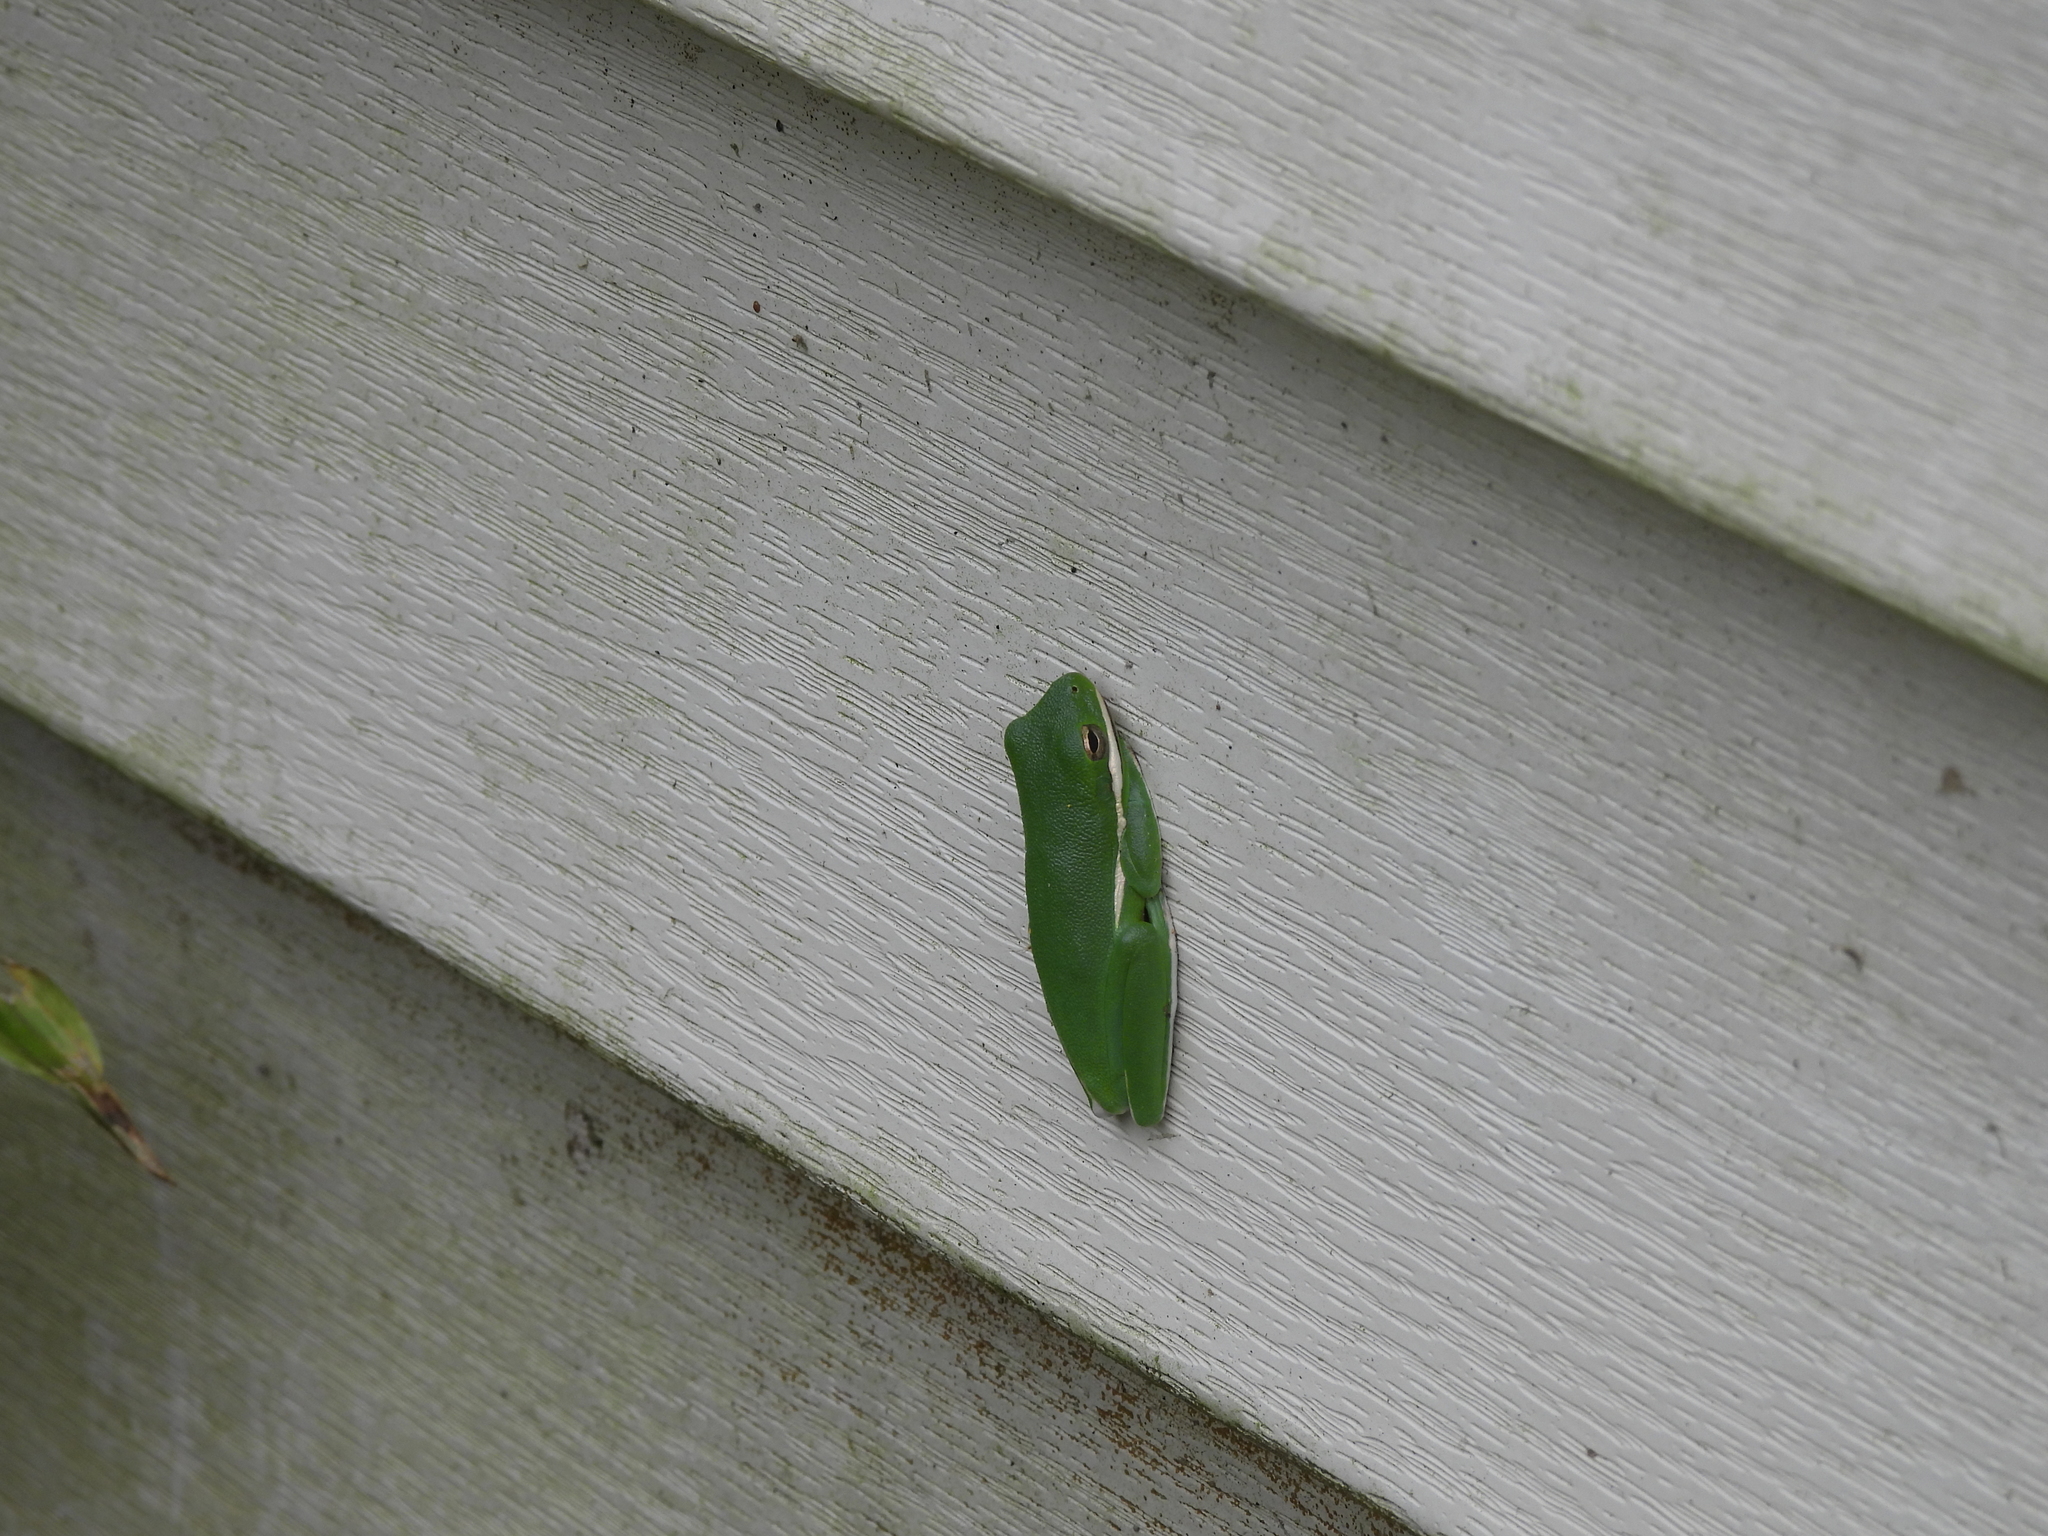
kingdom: Animalia
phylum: Chordata
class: Amphibia
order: Anura
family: Hylidae
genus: Dryophytes
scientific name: Dryophytes cinereus
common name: Green treefrog
